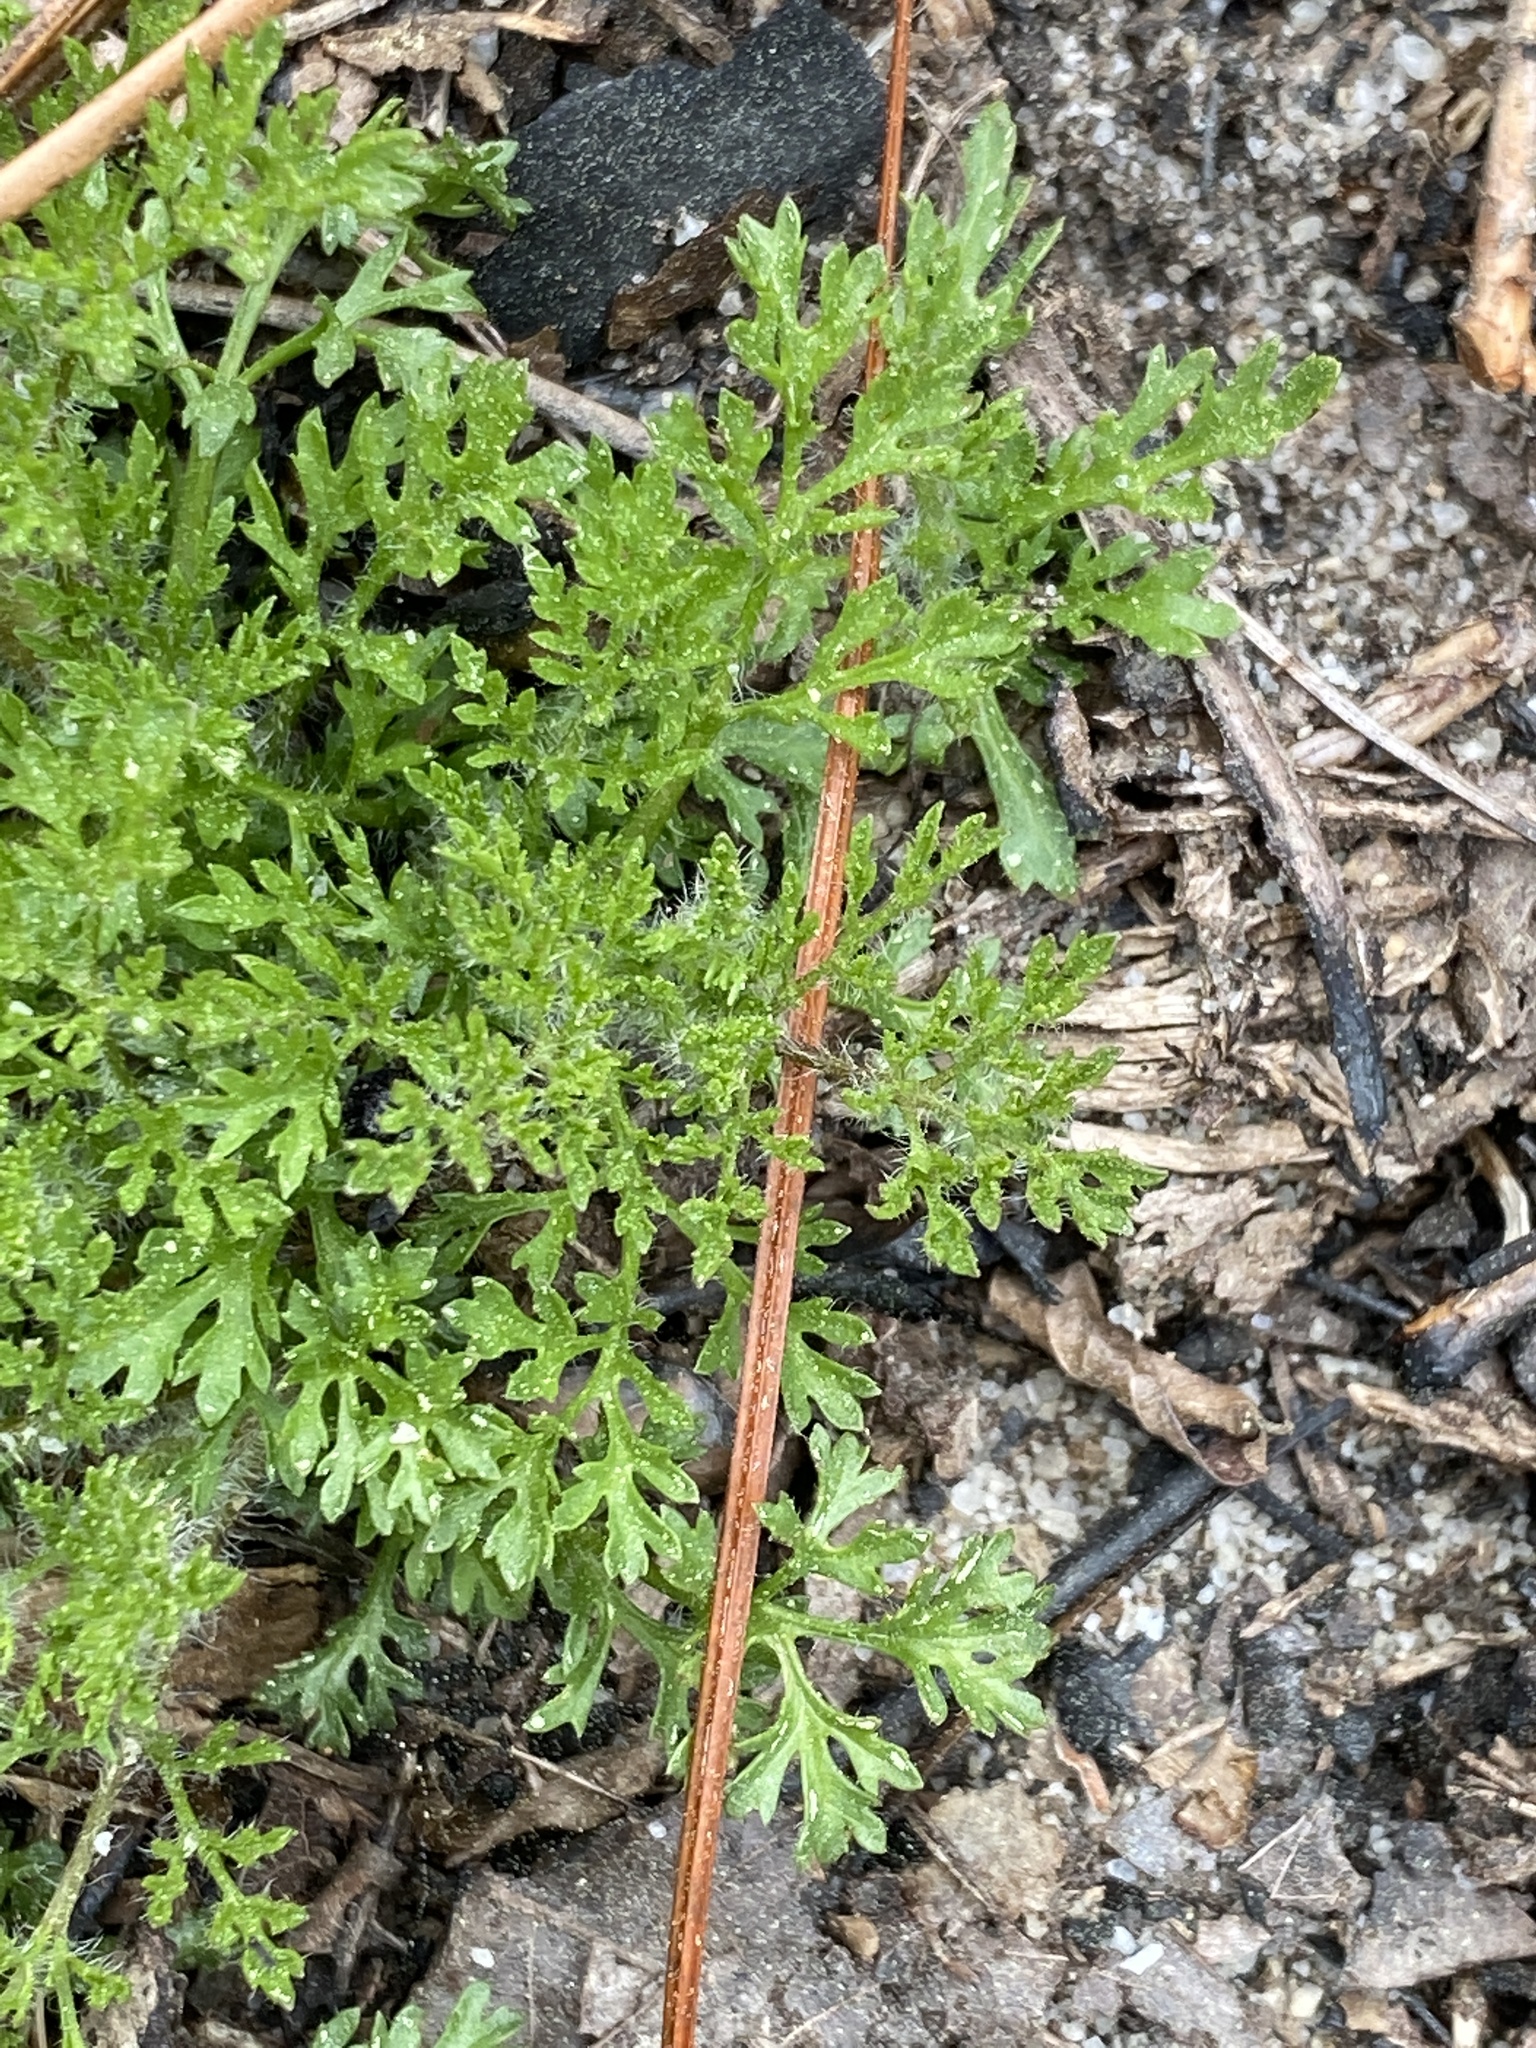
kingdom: Plantae
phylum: Tracheophyta
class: Magnoliopsida
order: Asterales
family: Asteraceae
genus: Eupatorium
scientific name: Eupatorium compositifolium
